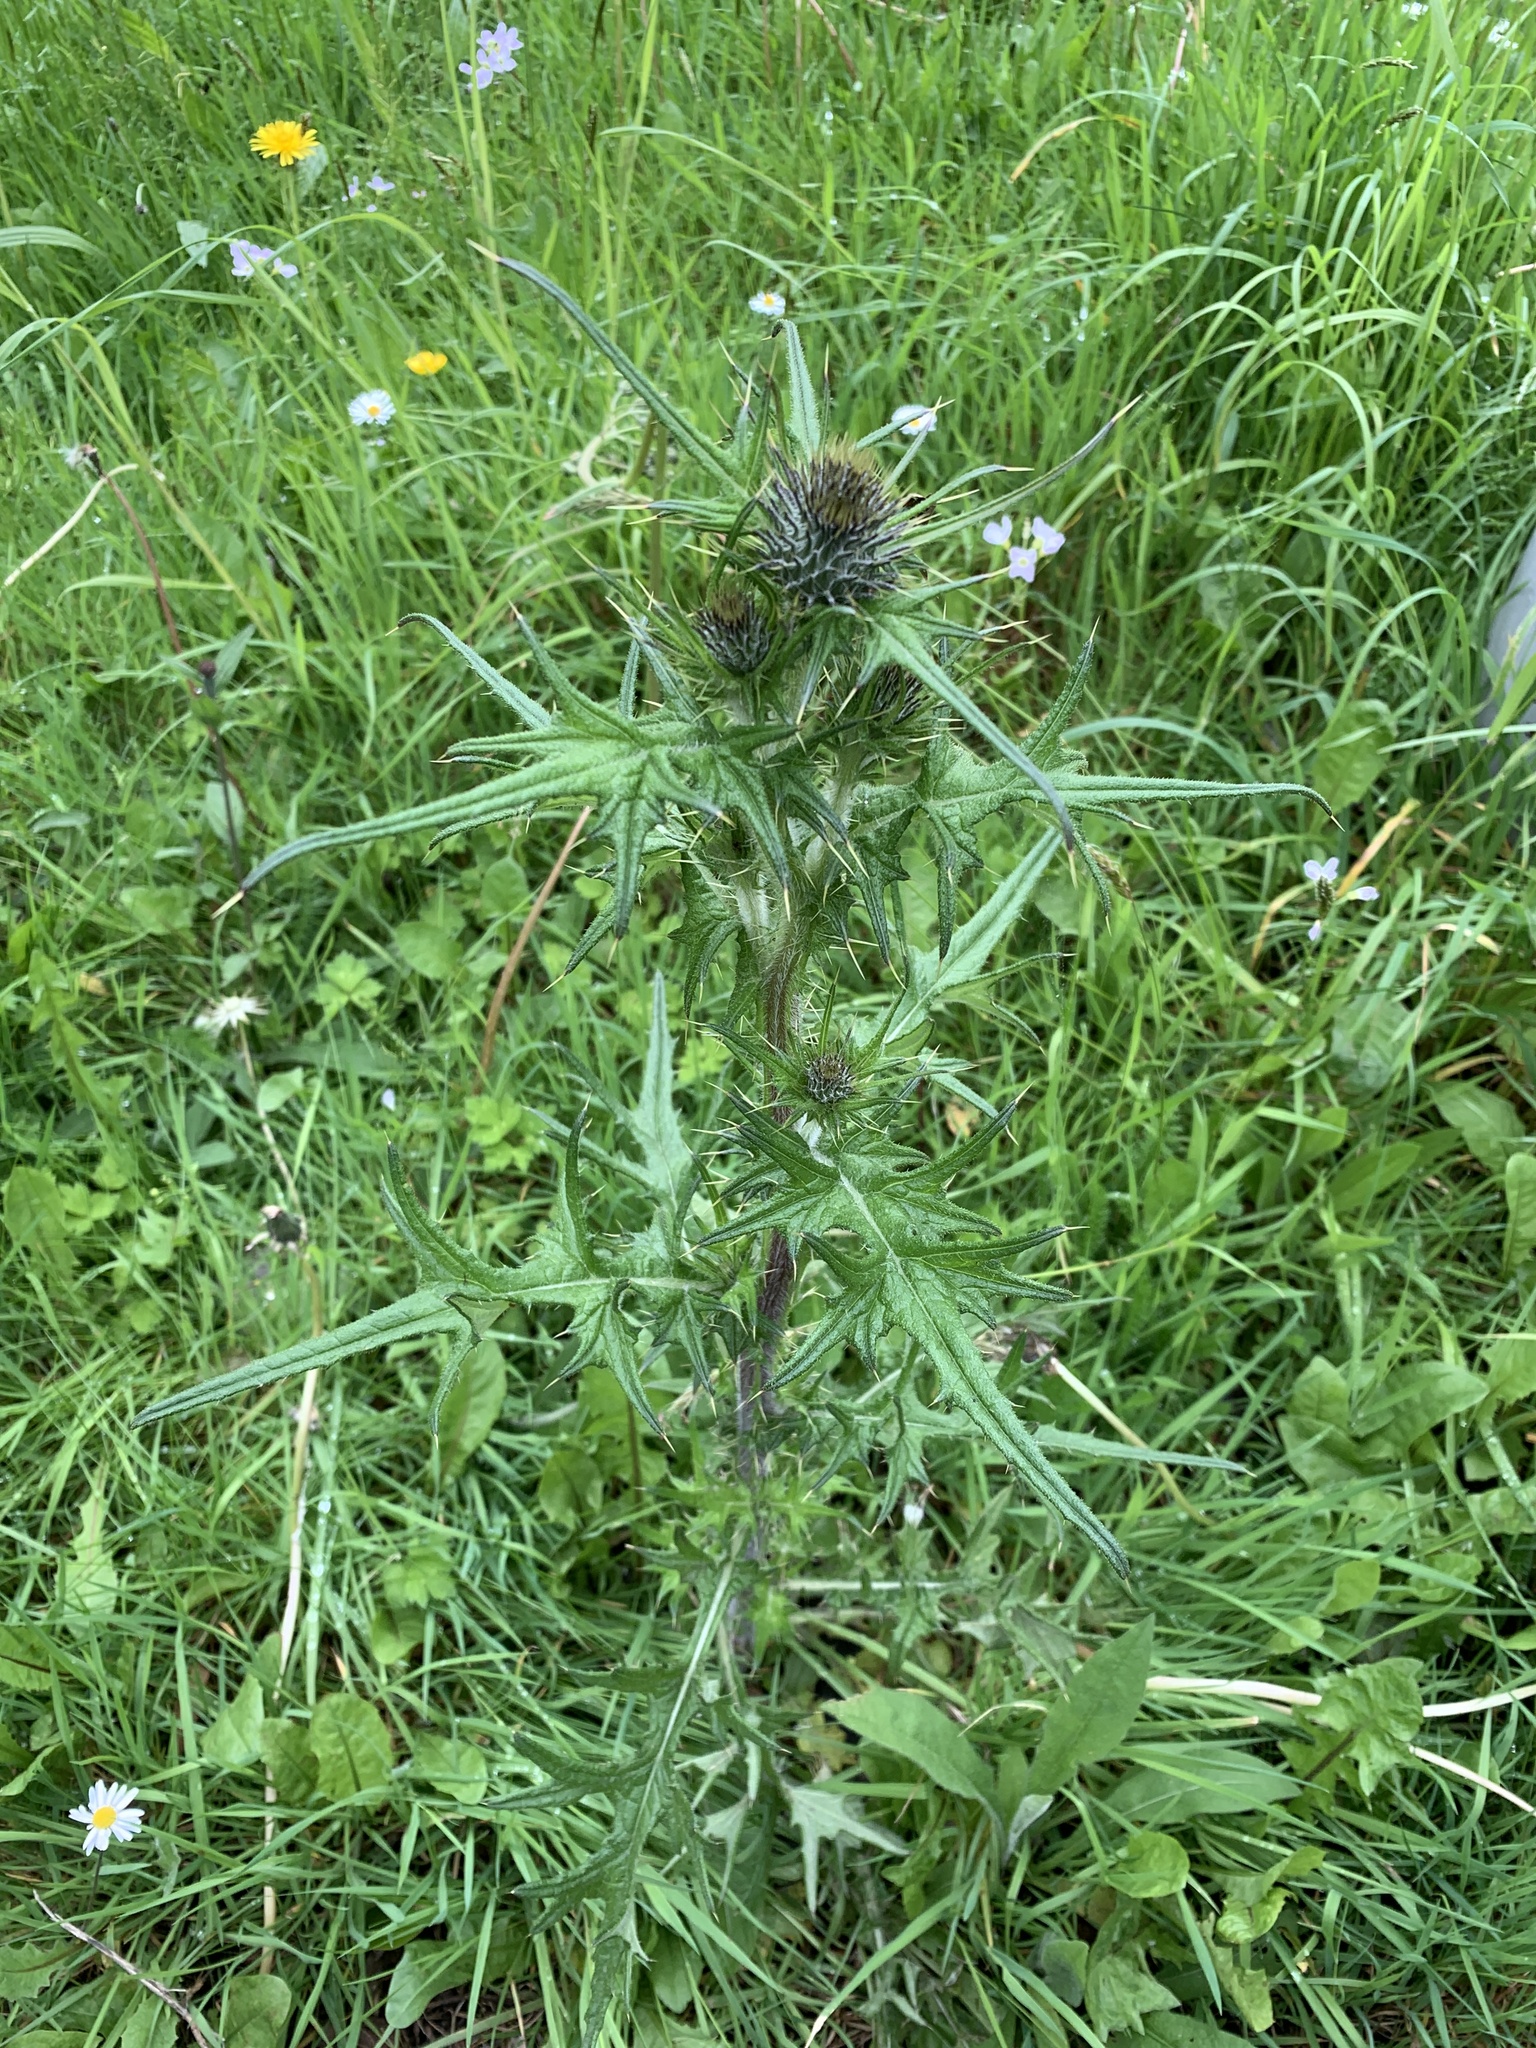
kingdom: Plantae
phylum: Tracheophyta
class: Magnoliopsida
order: Asterales
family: Asteraceae
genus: Cirsium
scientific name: Cirsium palustre
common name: Marsh thistle
